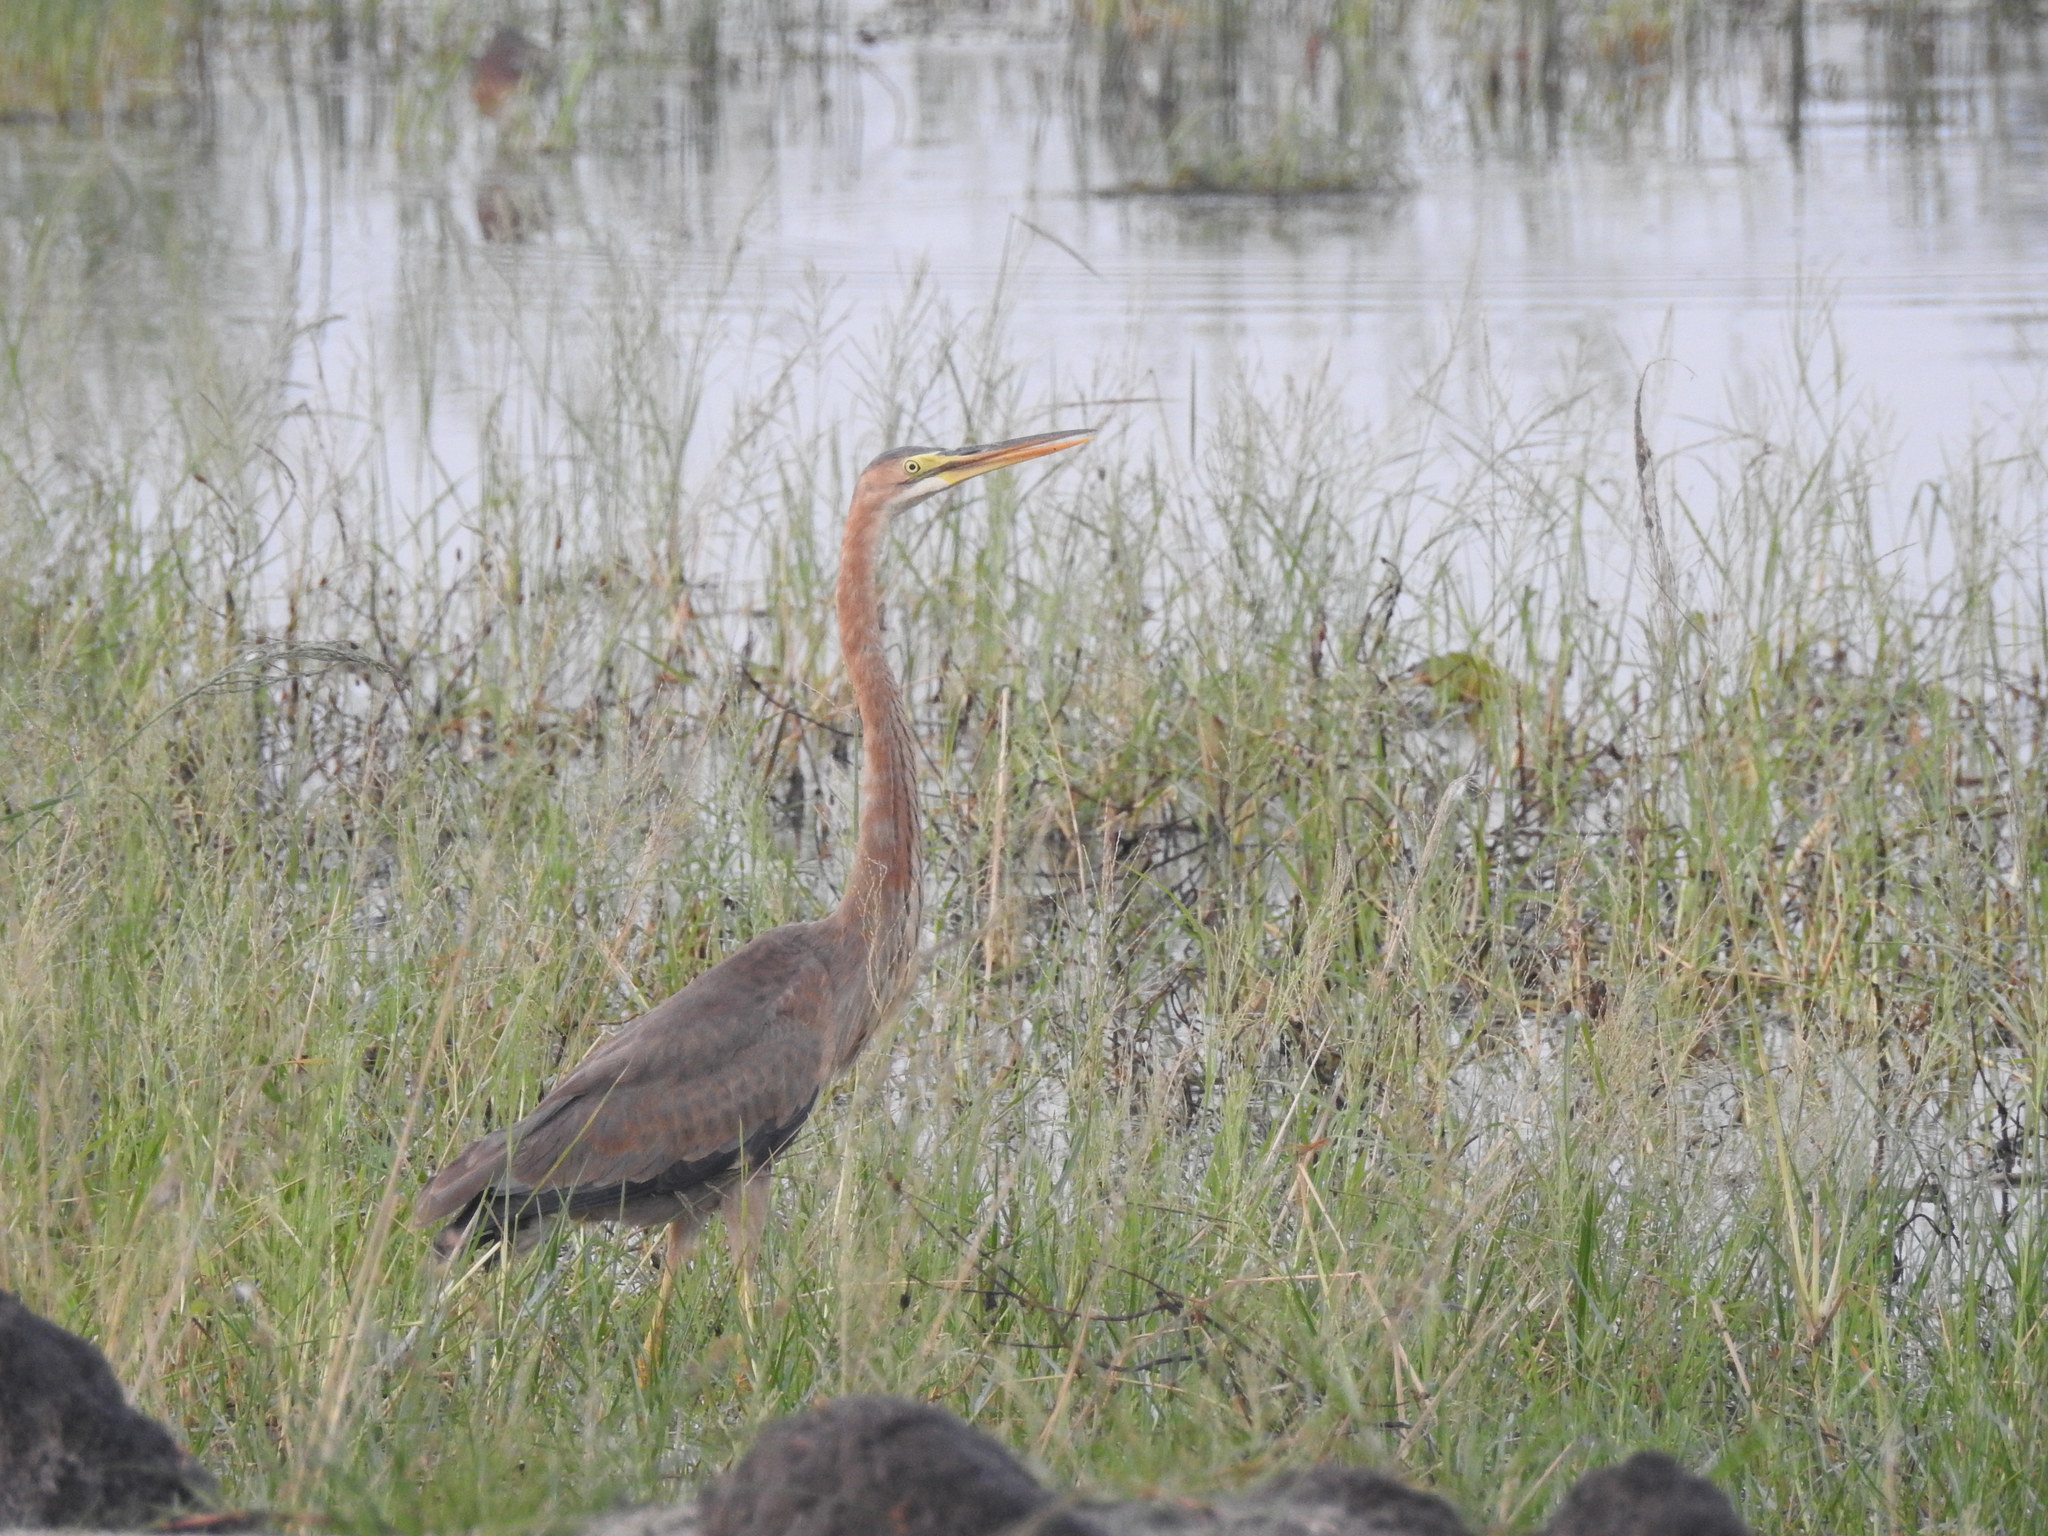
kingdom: Animalia
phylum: Chordata
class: Aves
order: Pelecaniformes
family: Ardeidae
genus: Ardea
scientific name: Ardea purpurea
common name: Purple heron
